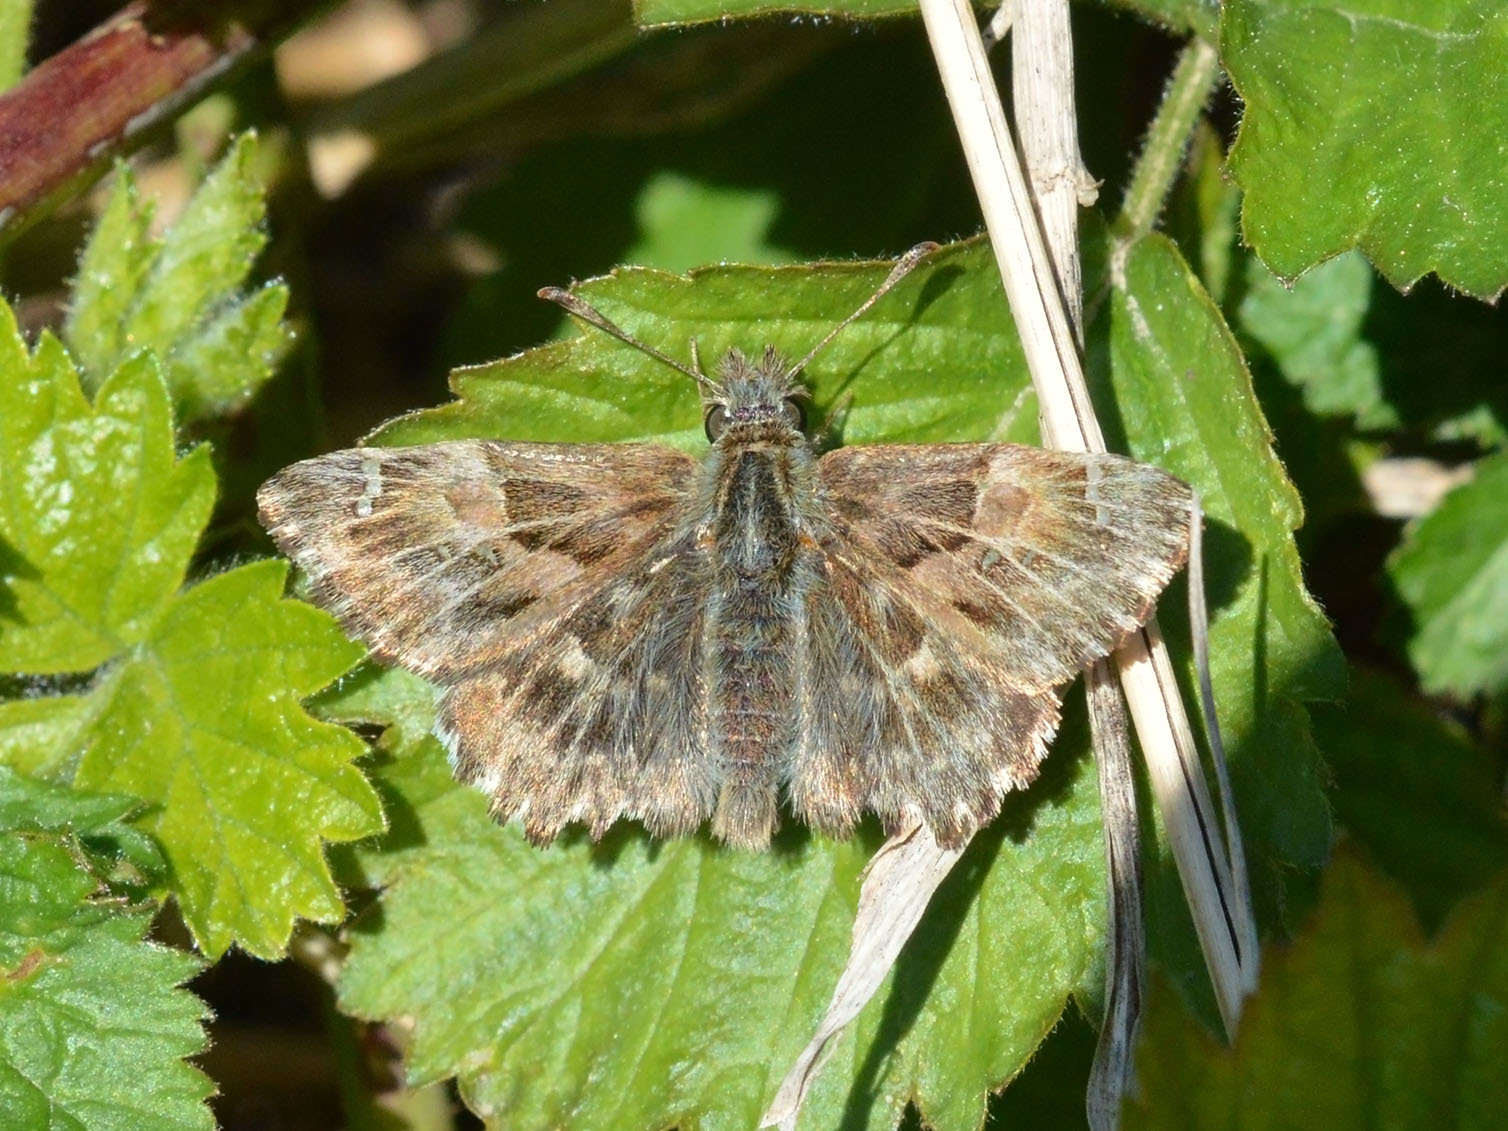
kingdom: Animalia
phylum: Arthropoda
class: Insecta
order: Lepidoptera
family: Hesperiidae
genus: Carcharodus
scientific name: Carcharodus alceae
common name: Mallow skipper
